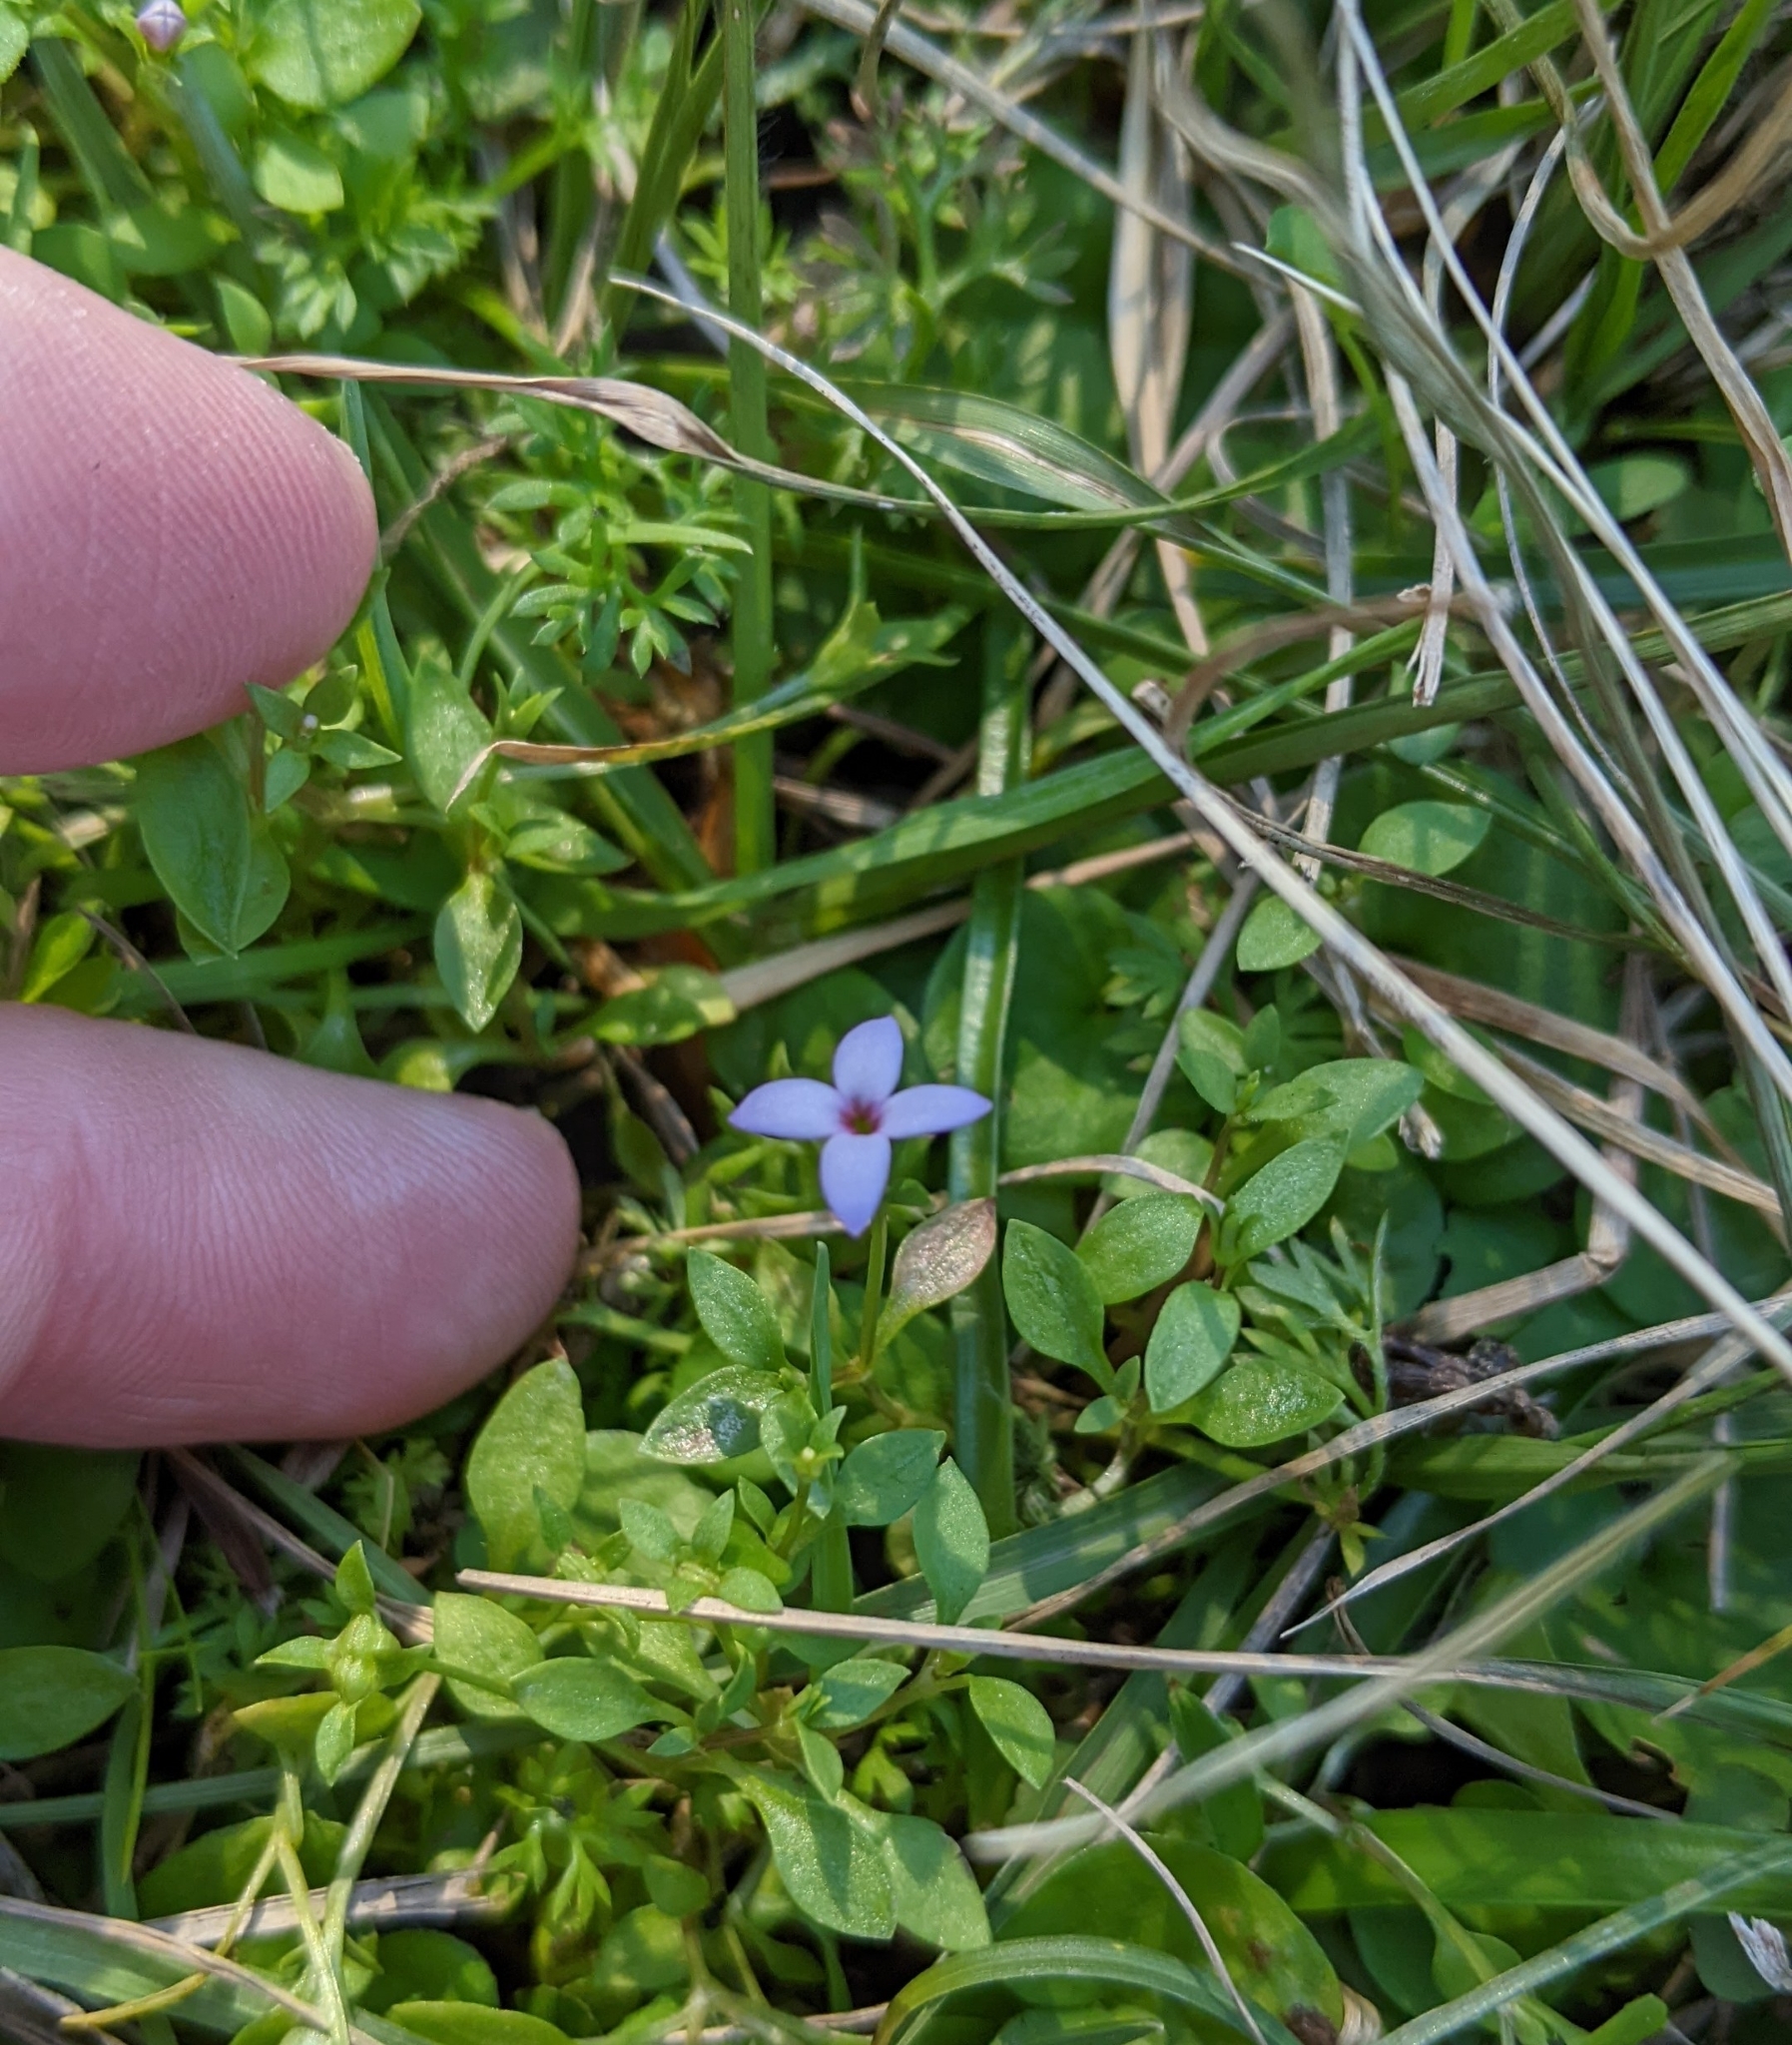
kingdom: Plantae
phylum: Tracheophyta
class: Magnoliopsida
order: Gentianales
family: Rubiaceae
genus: Houstonia
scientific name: Houstonia pusilla
